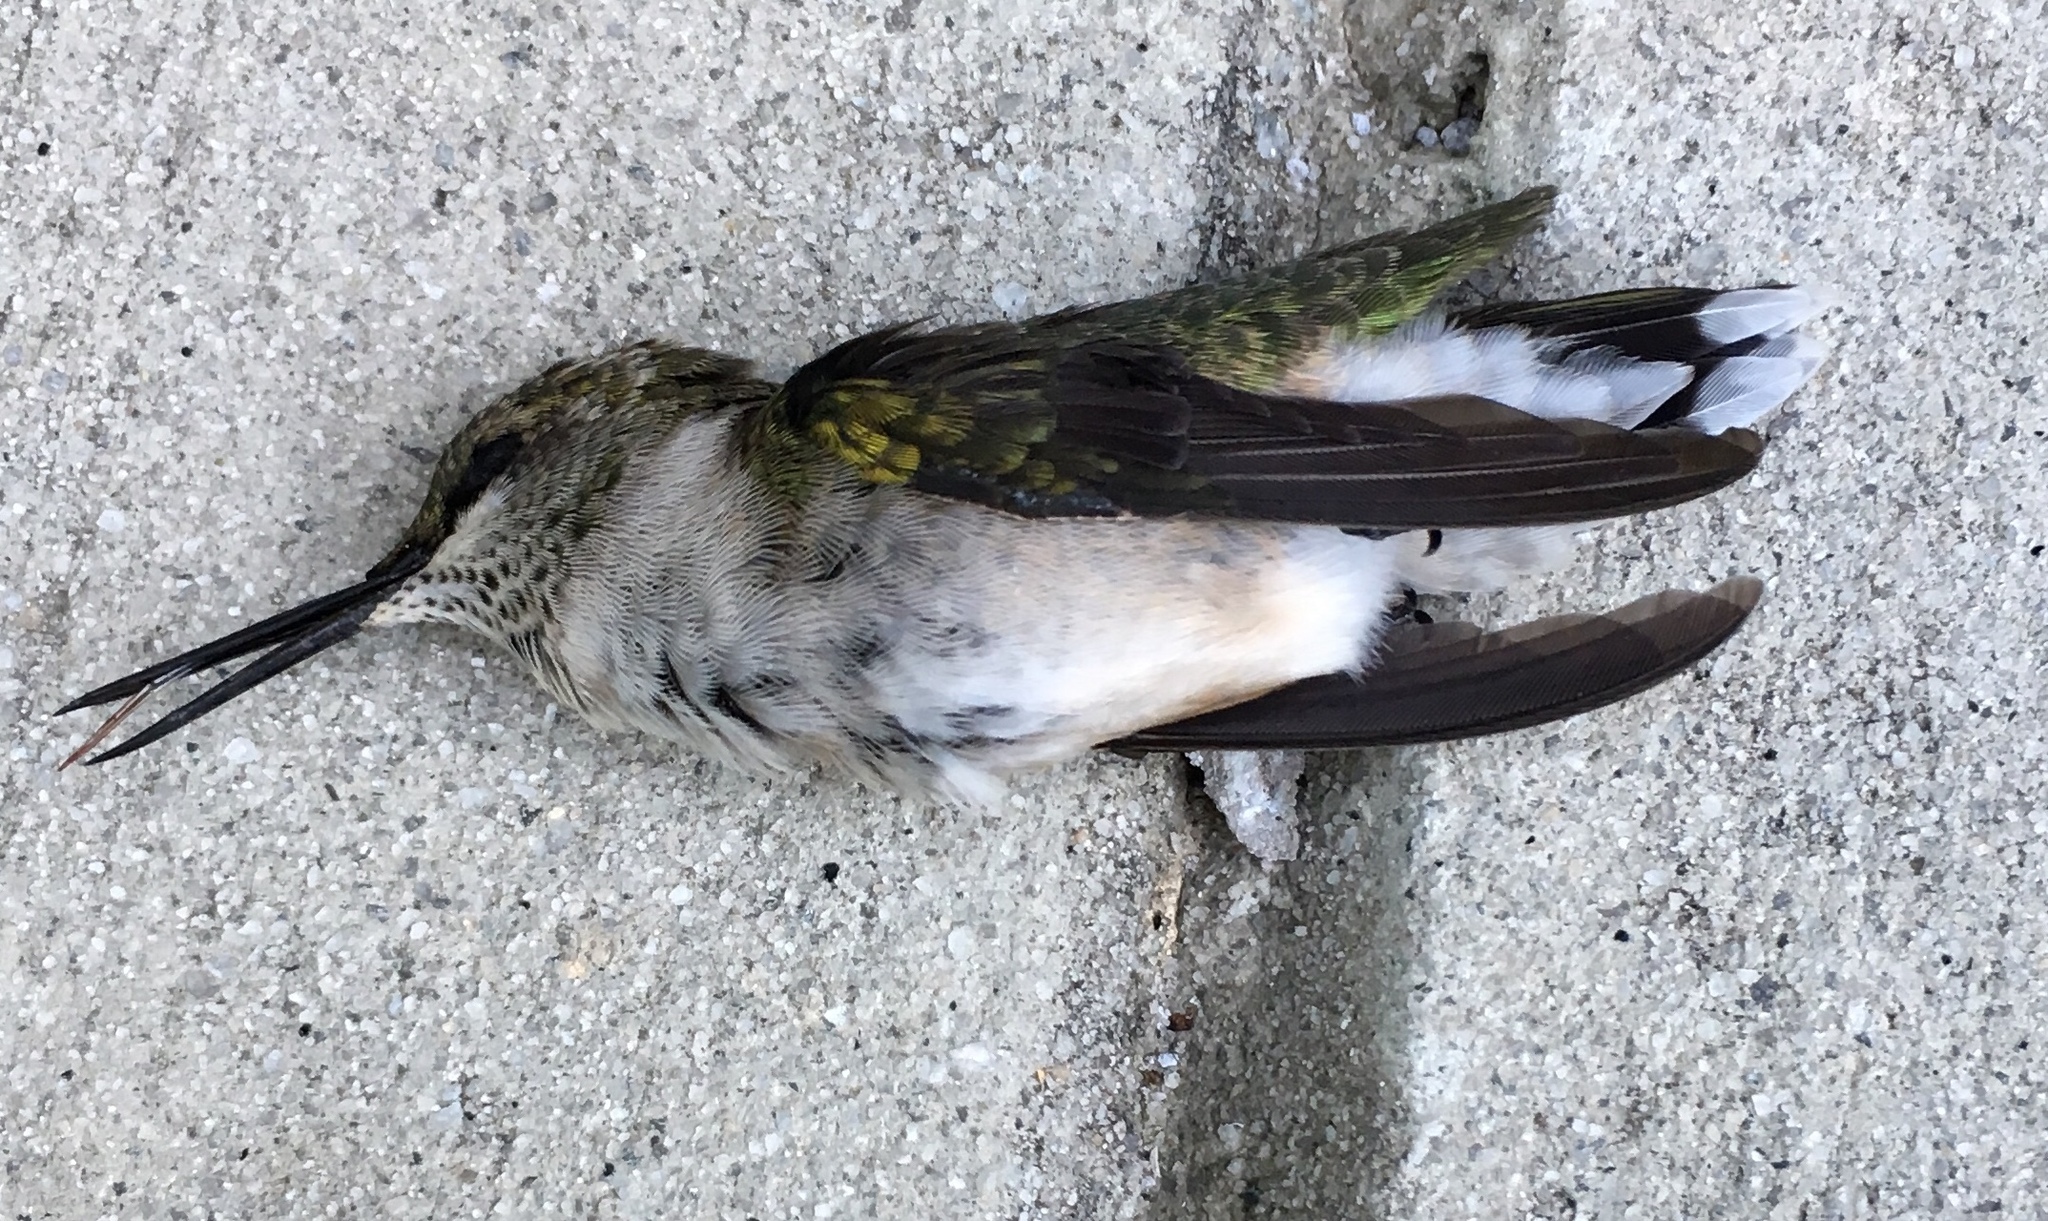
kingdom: Animalia
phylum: Chordata
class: Aves
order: Apodiformes
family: Trochilidae
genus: Archilochus
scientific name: Archilochus colubris
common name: Ruby-throated hummingbird
